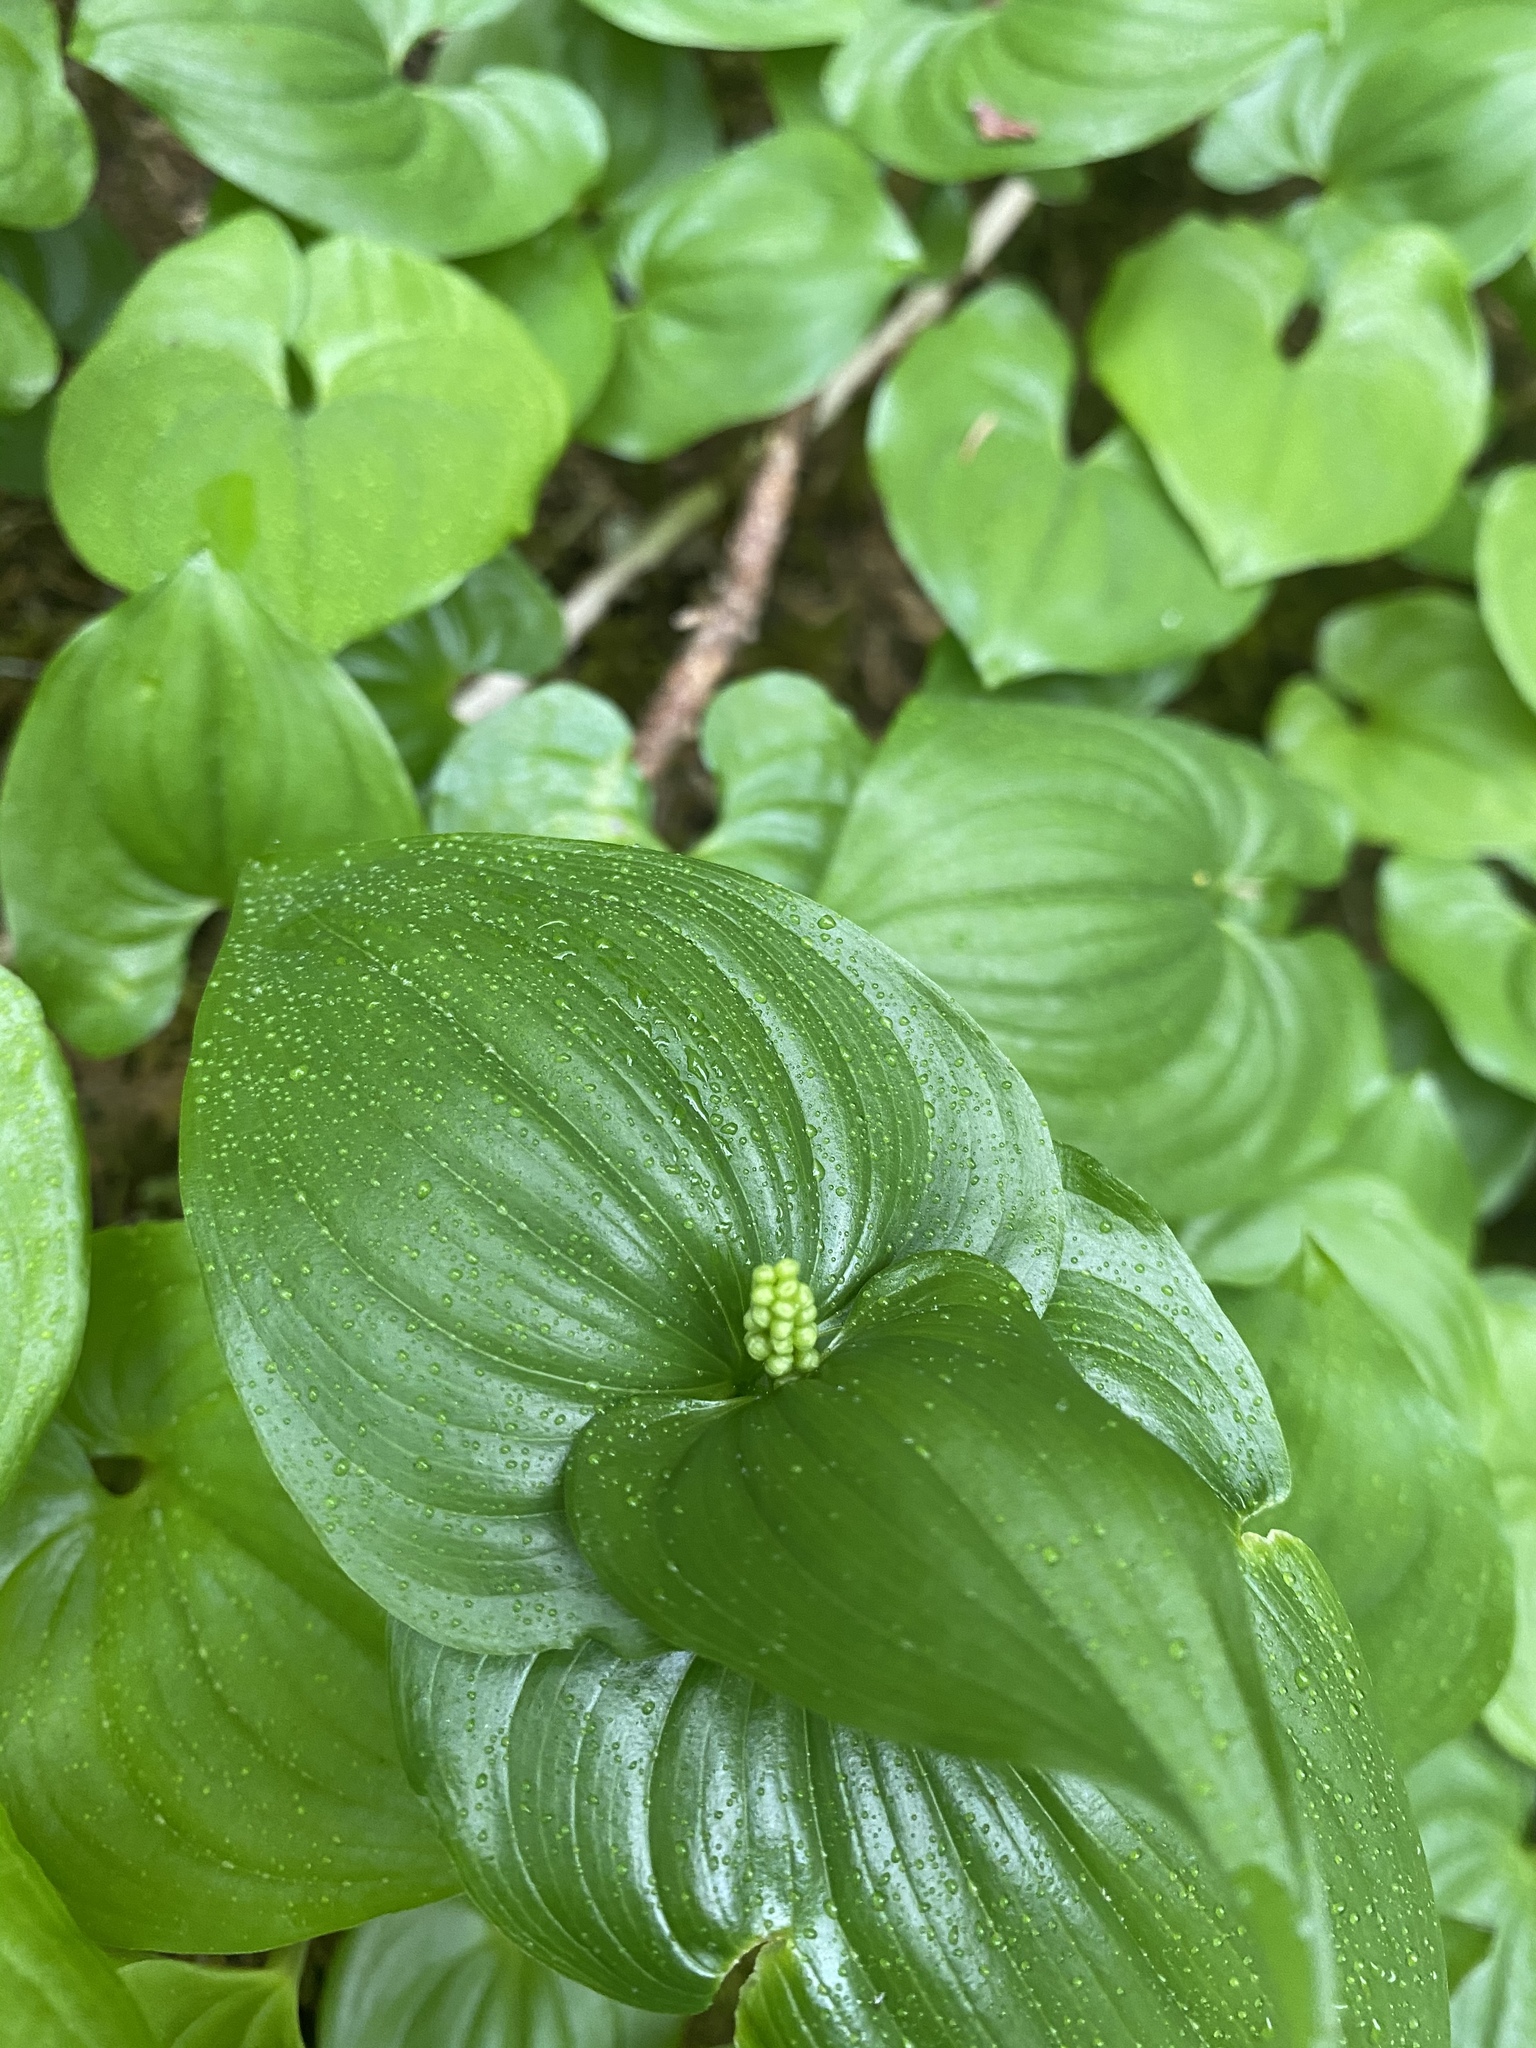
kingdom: Plantae
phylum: Tracheophyta
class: Liliopsida
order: Asparagales
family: Asparagaceae
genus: Maianthemum
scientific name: Maianthemum dilatatum
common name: False lily-of-the-valley
